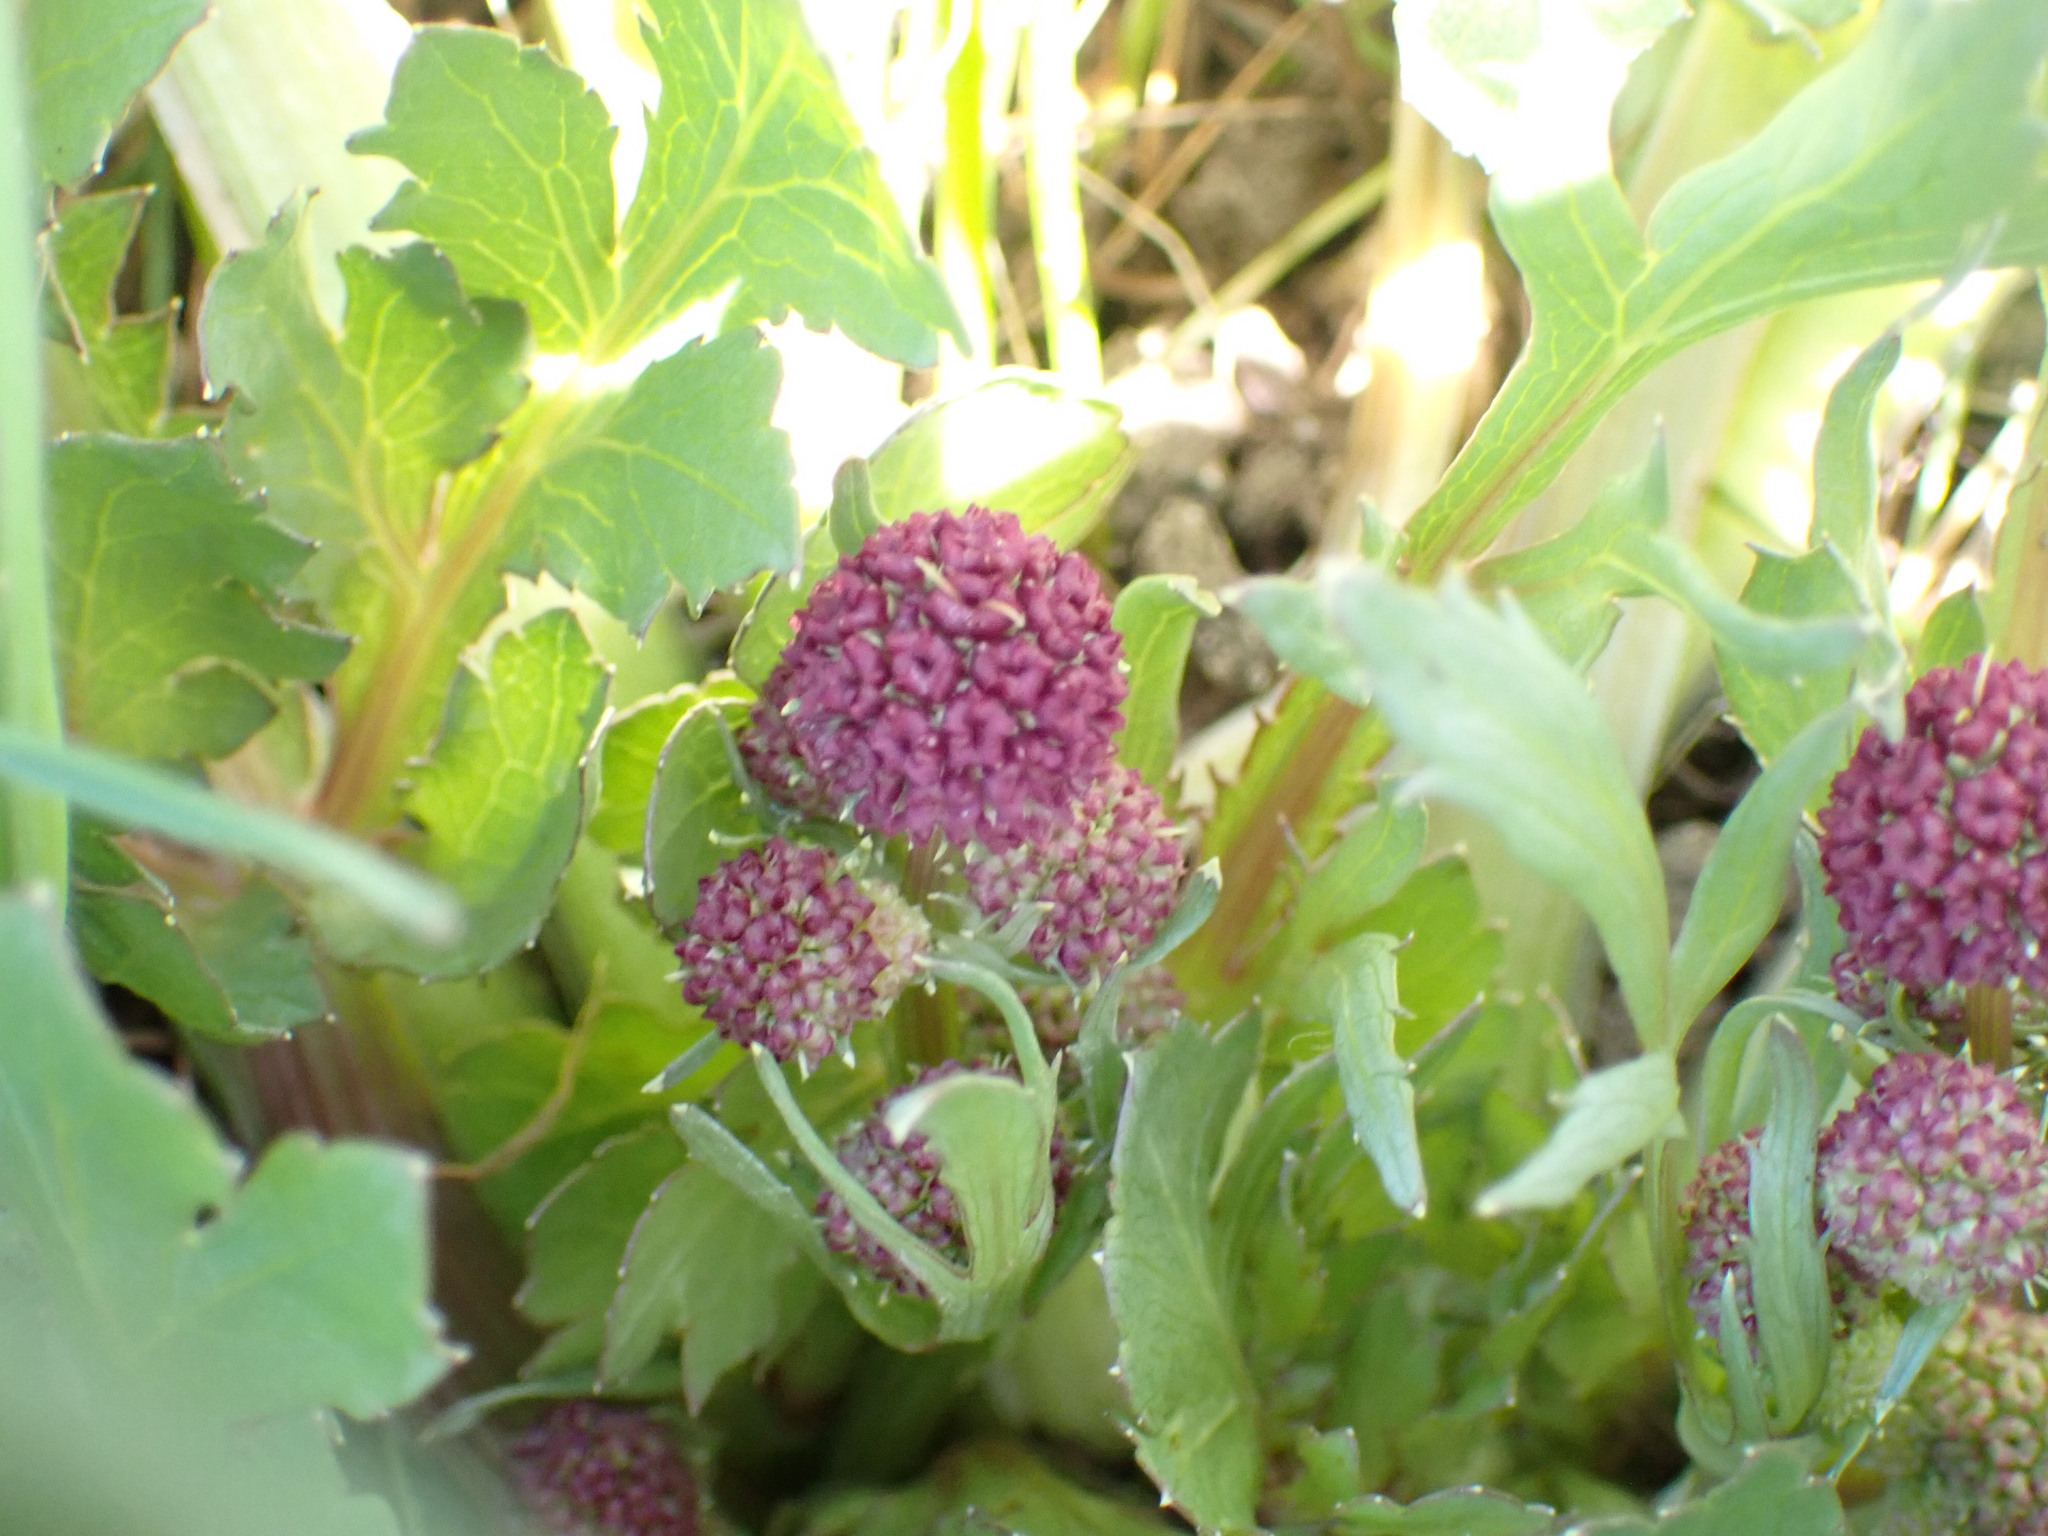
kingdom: Plantae
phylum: Tracheophyta
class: Magnoliopsida
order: Apiales
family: Apiaceae
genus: Sanicula
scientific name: Sanicula bipinnatifida
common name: Shoe-buttons
